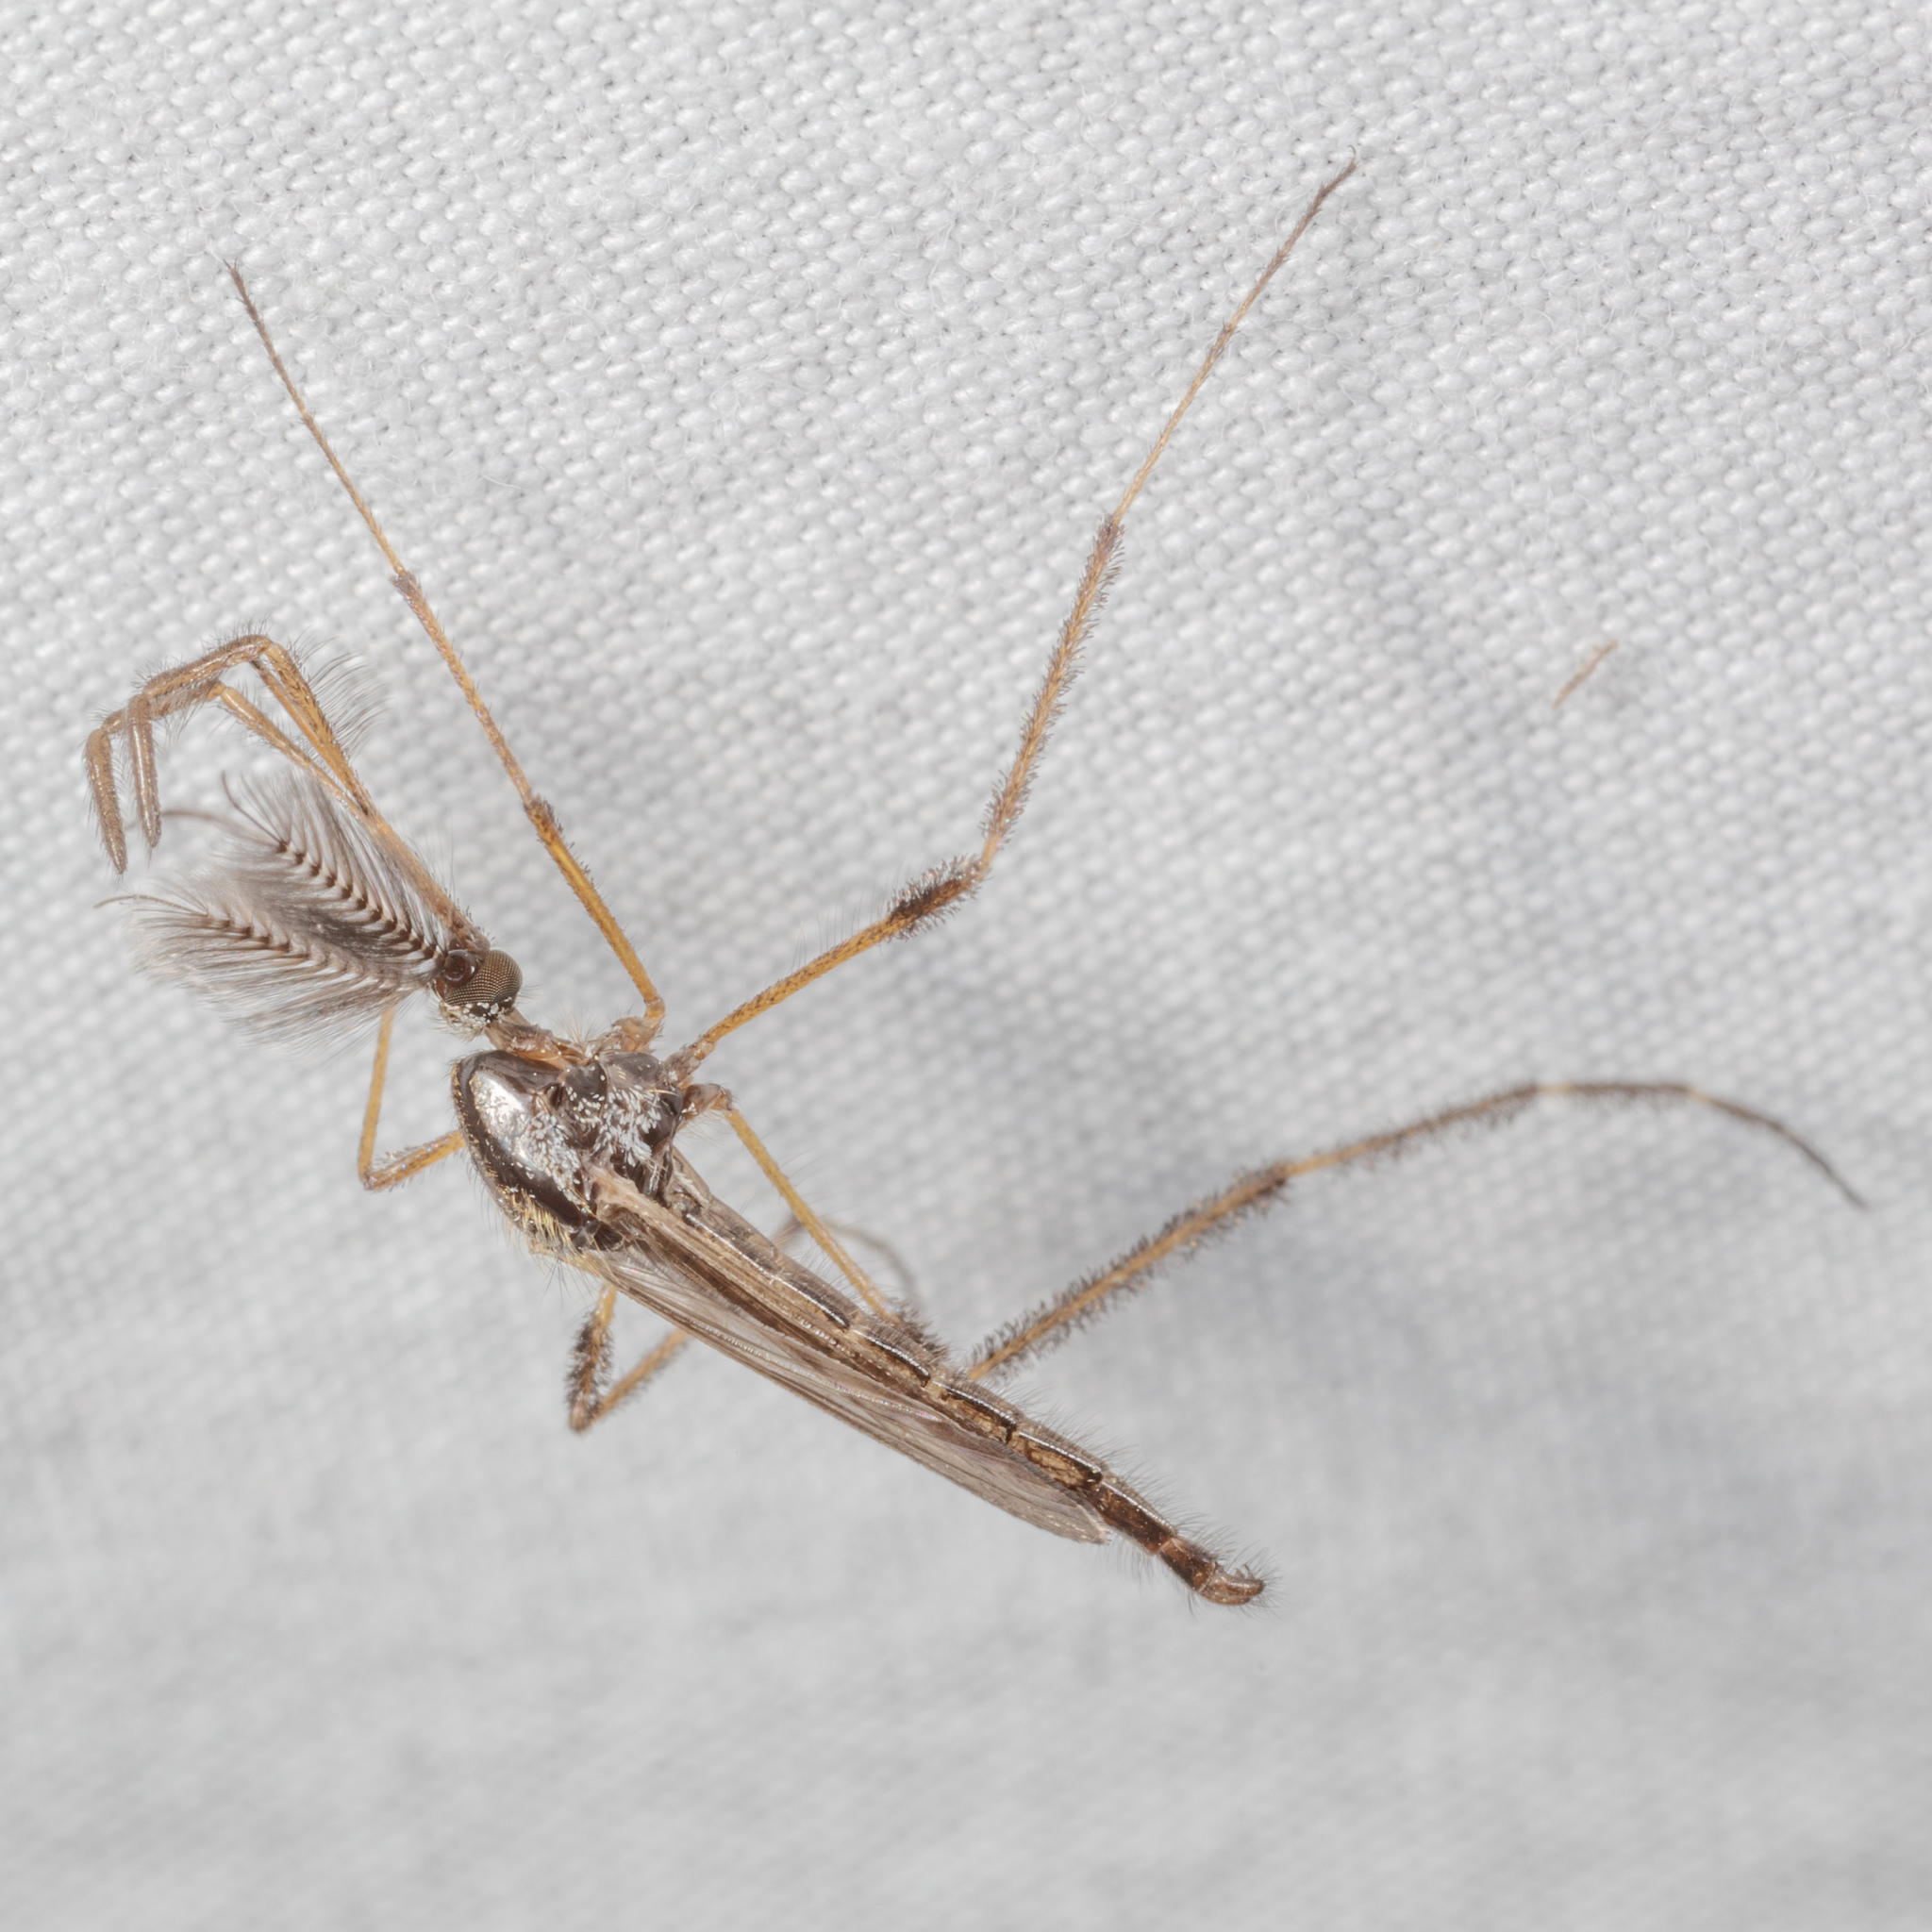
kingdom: Animalia
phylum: Arthropoda
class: Insecta
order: Diptera
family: Culicidae
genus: Psorophora
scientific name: Psorophora ciliata
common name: Gallinipper
